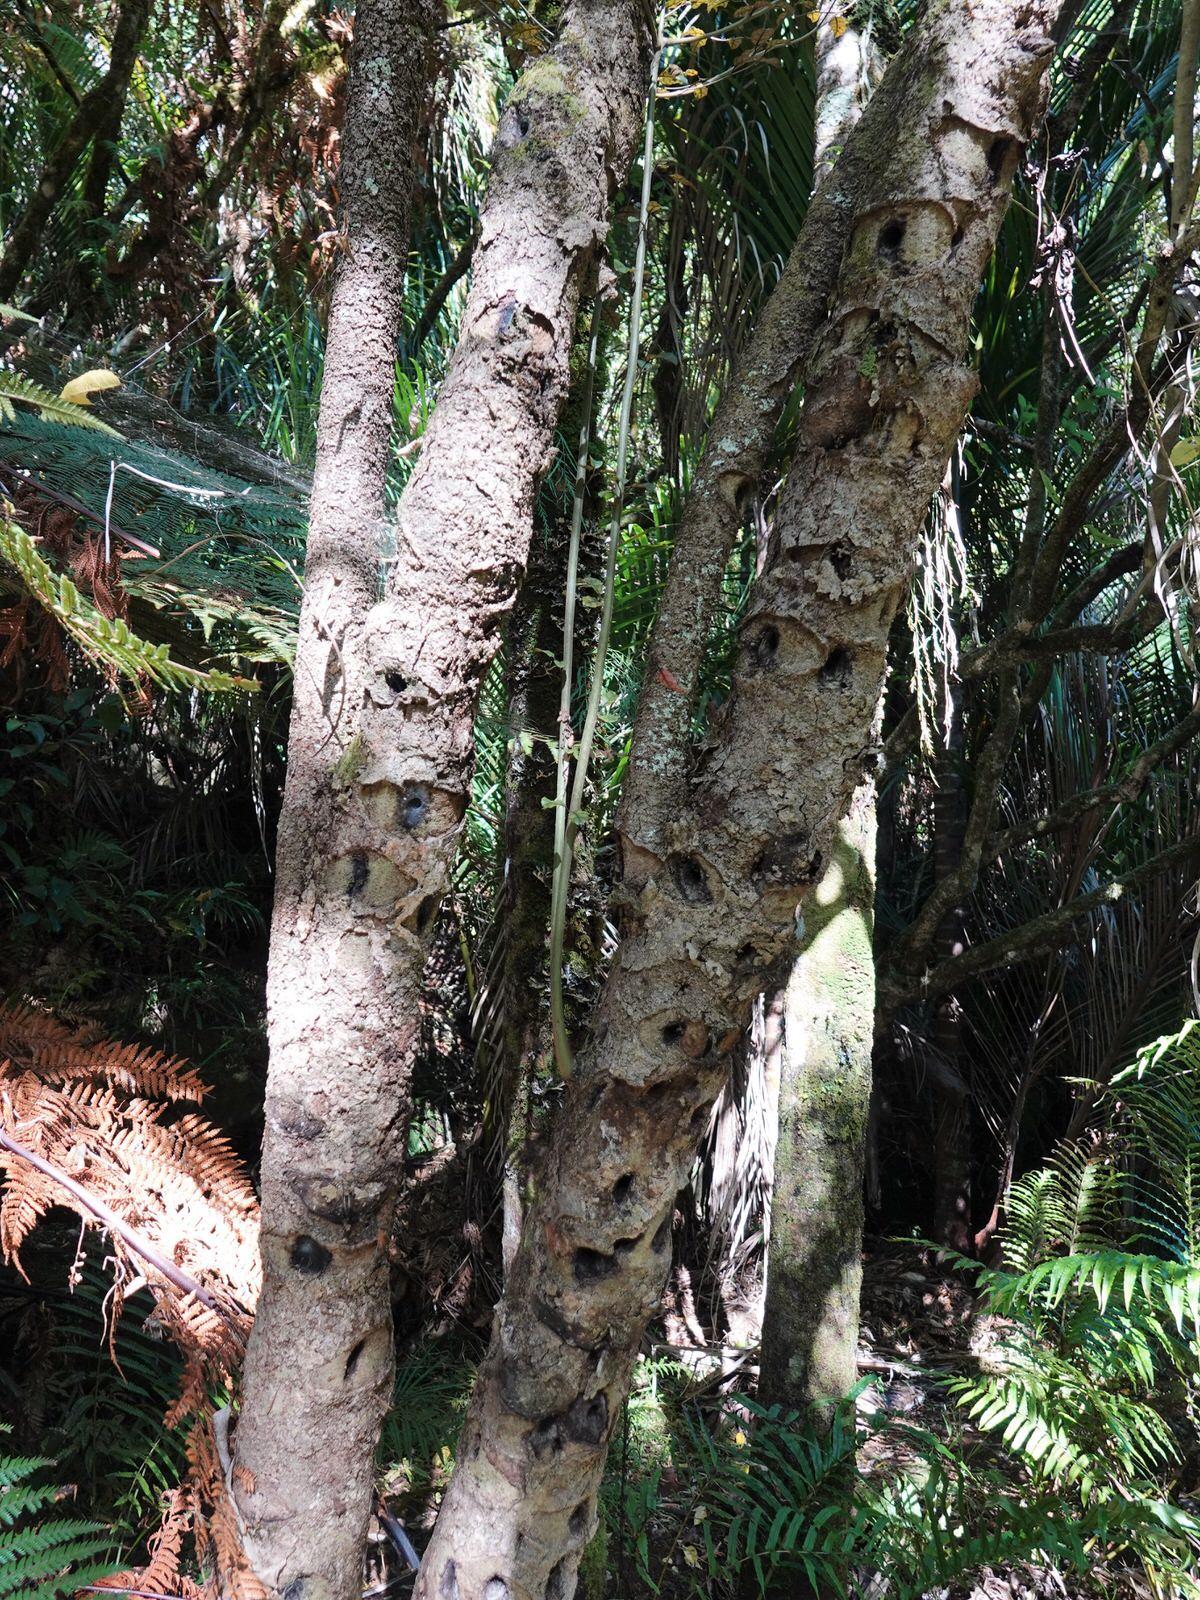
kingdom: Plantae
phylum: Tracheophyta
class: Magnoliopsida
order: Asterales
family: Rousseaceae
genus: Carpodetus
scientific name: Carpodetus serratus
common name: White mapau
